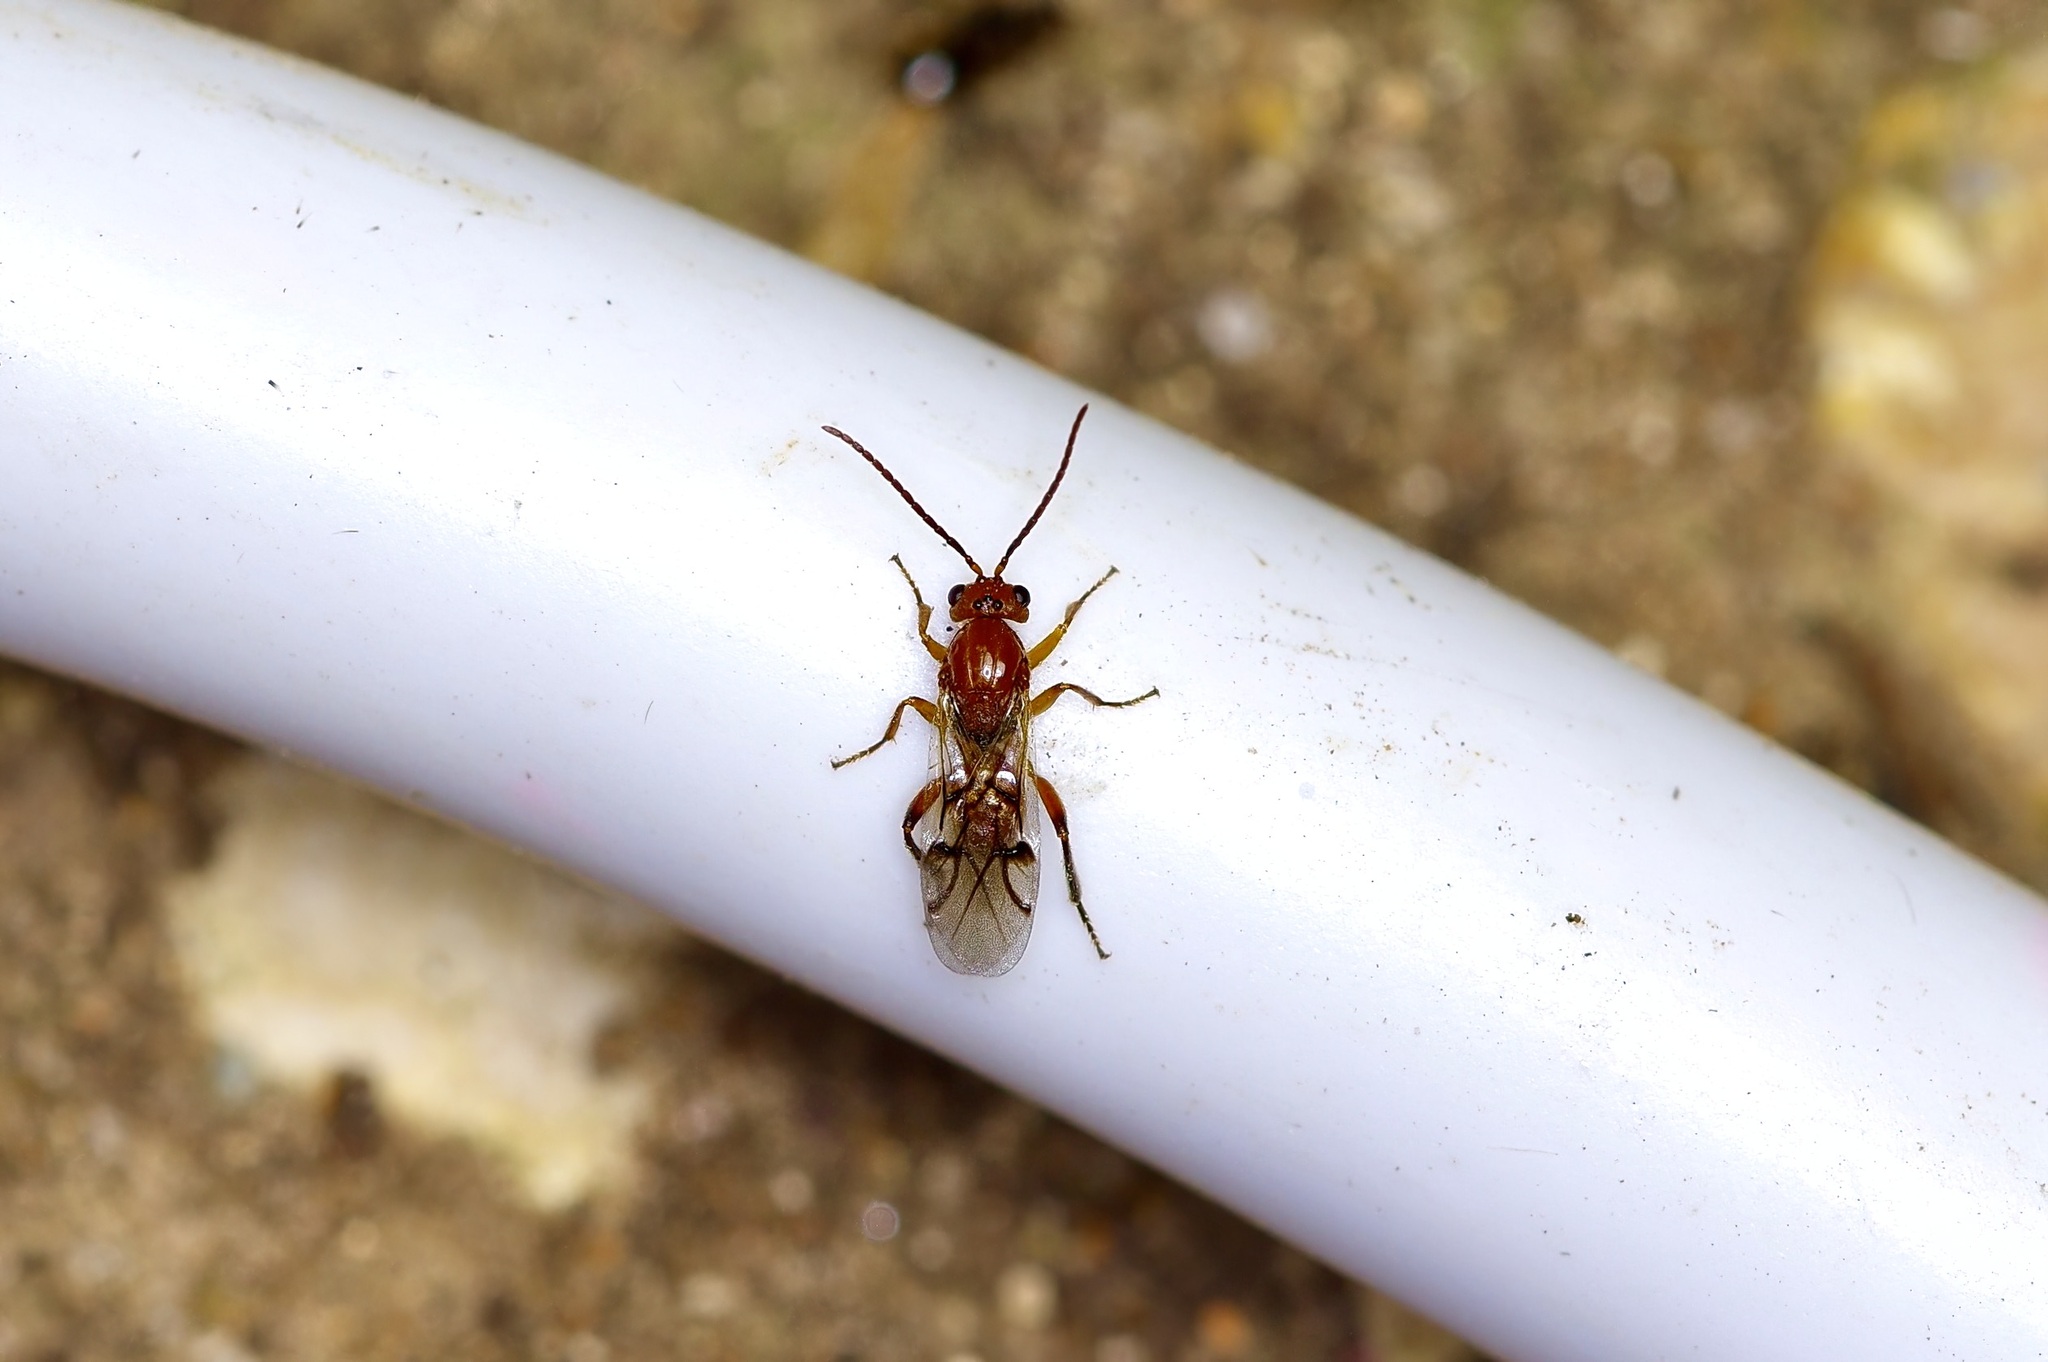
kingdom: Animalia
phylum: Arthropoda
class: Insecta
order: Hymenoptera
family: Cynipidae
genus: Belonocnema
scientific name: Belonocnema kinseyi
